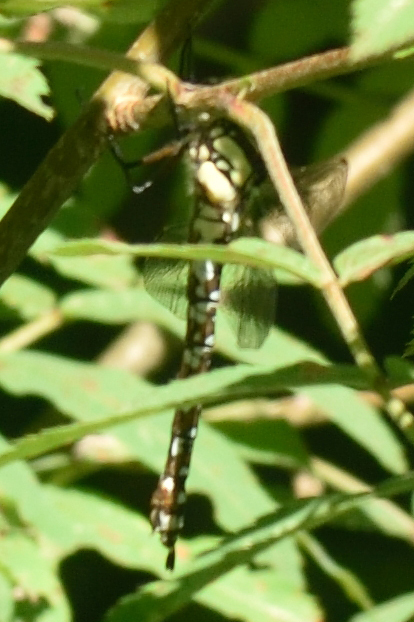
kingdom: Animalia
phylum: Arthropoda
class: Insecta
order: Odonata
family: Aeshnidae
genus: Aeshna
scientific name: Aeshna cyanea
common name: Southern hawker
